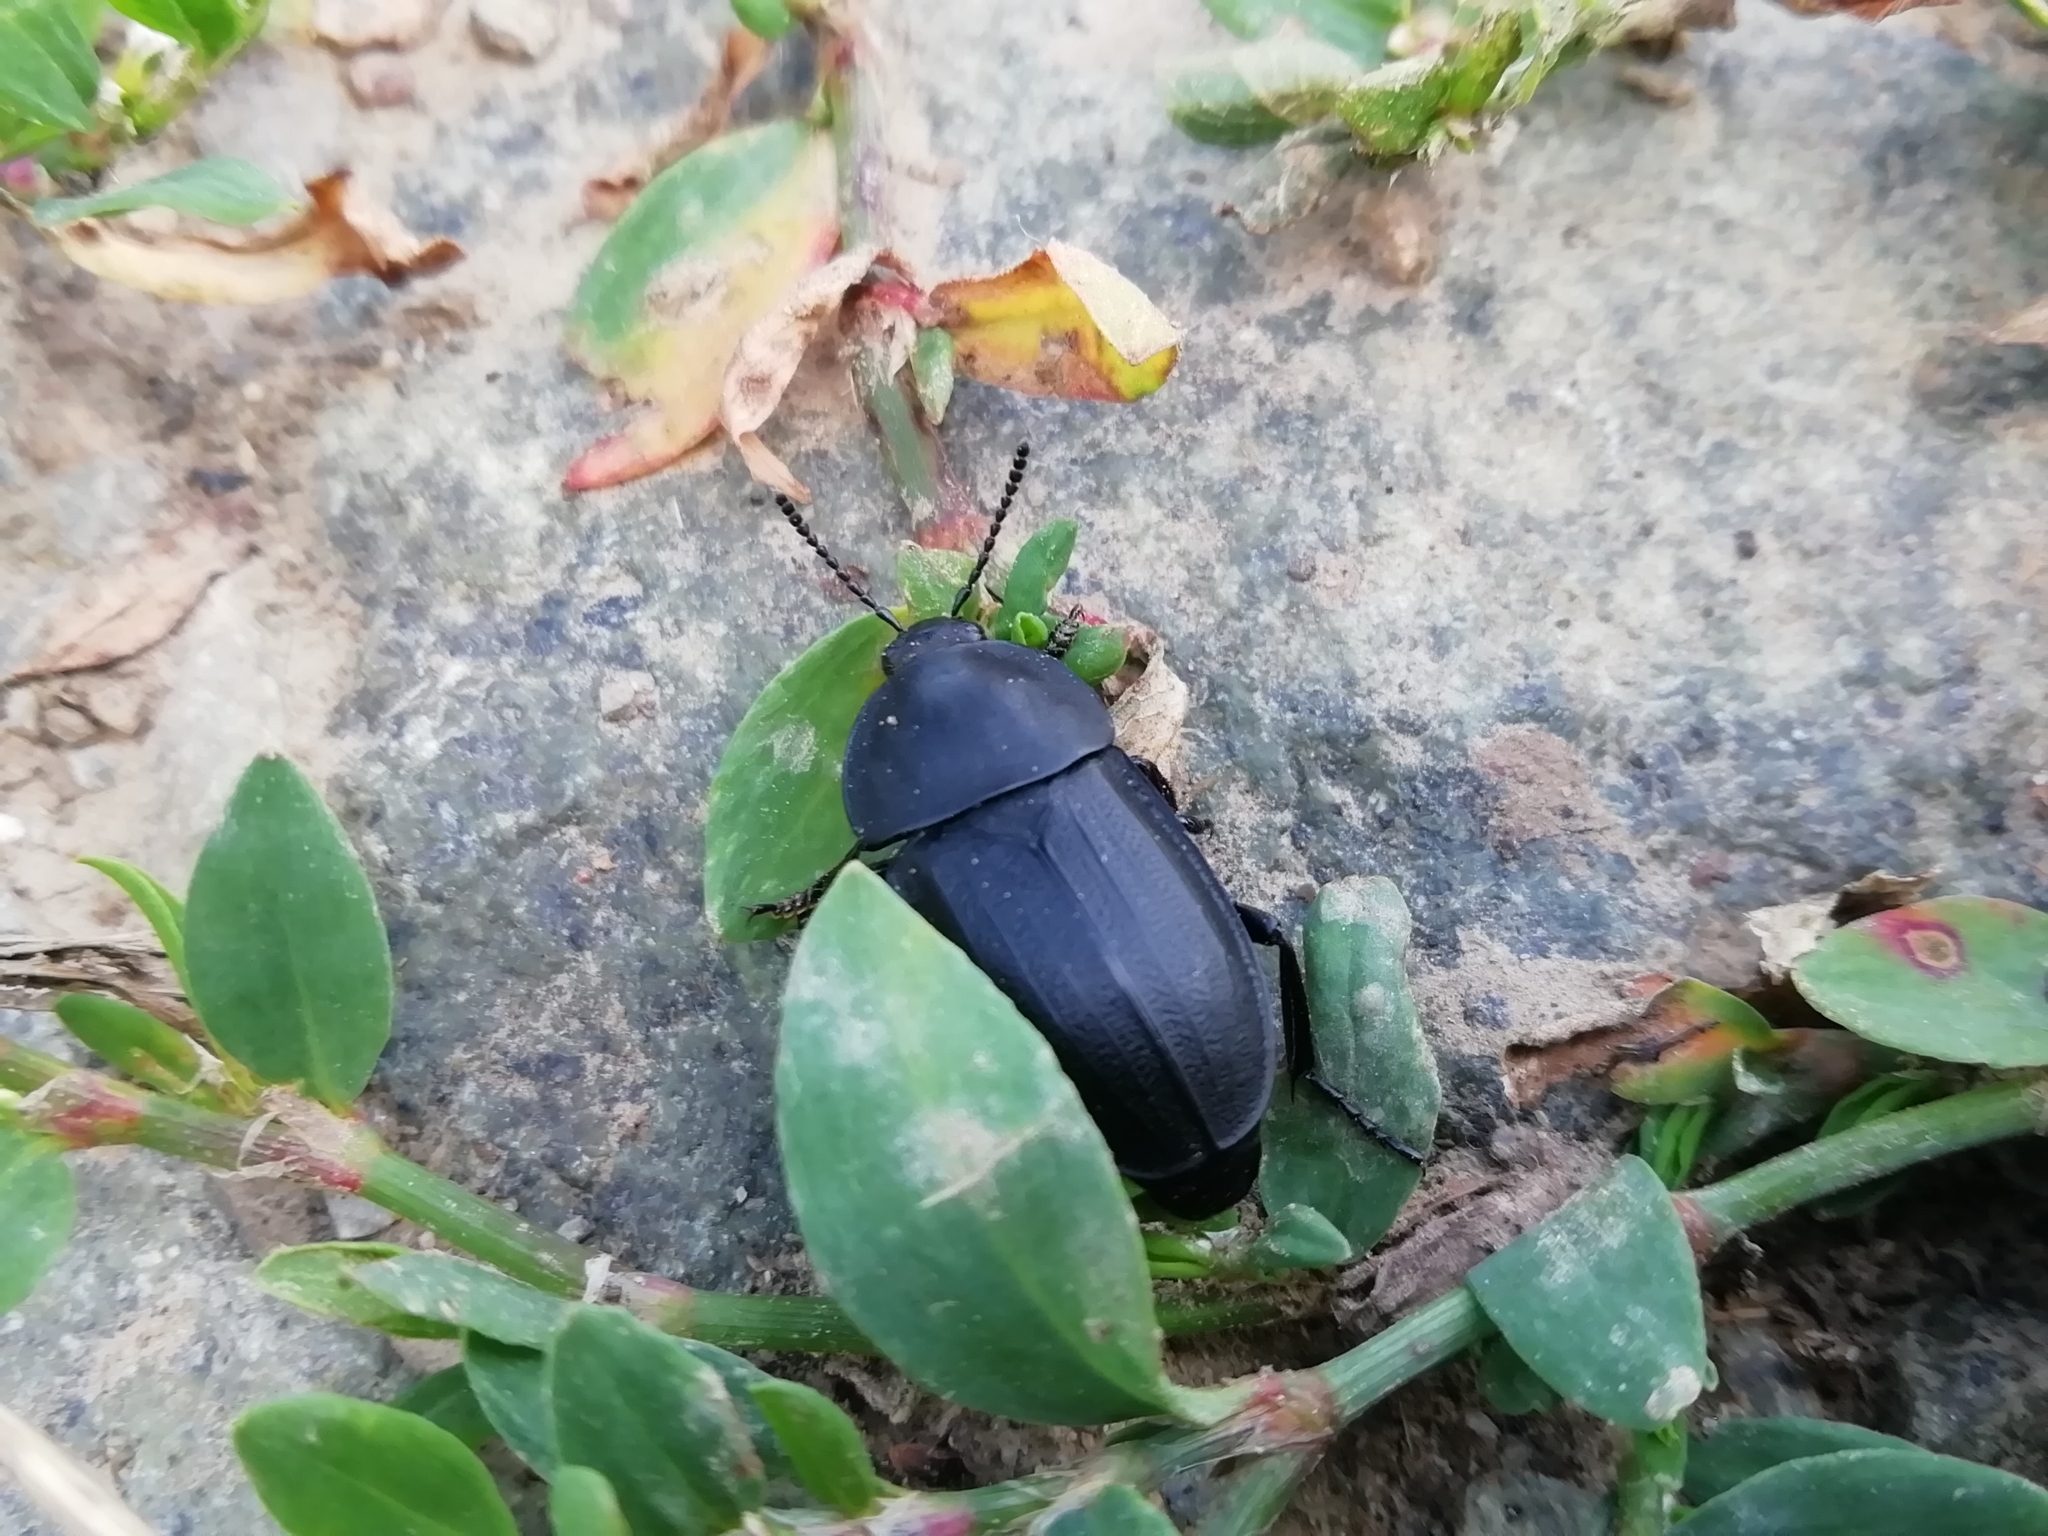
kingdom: Animalia
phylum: Arthropoda
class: Insecta
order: Coleoptera
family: Staphylinidae
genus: Silpha
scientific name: Silpha obscura
